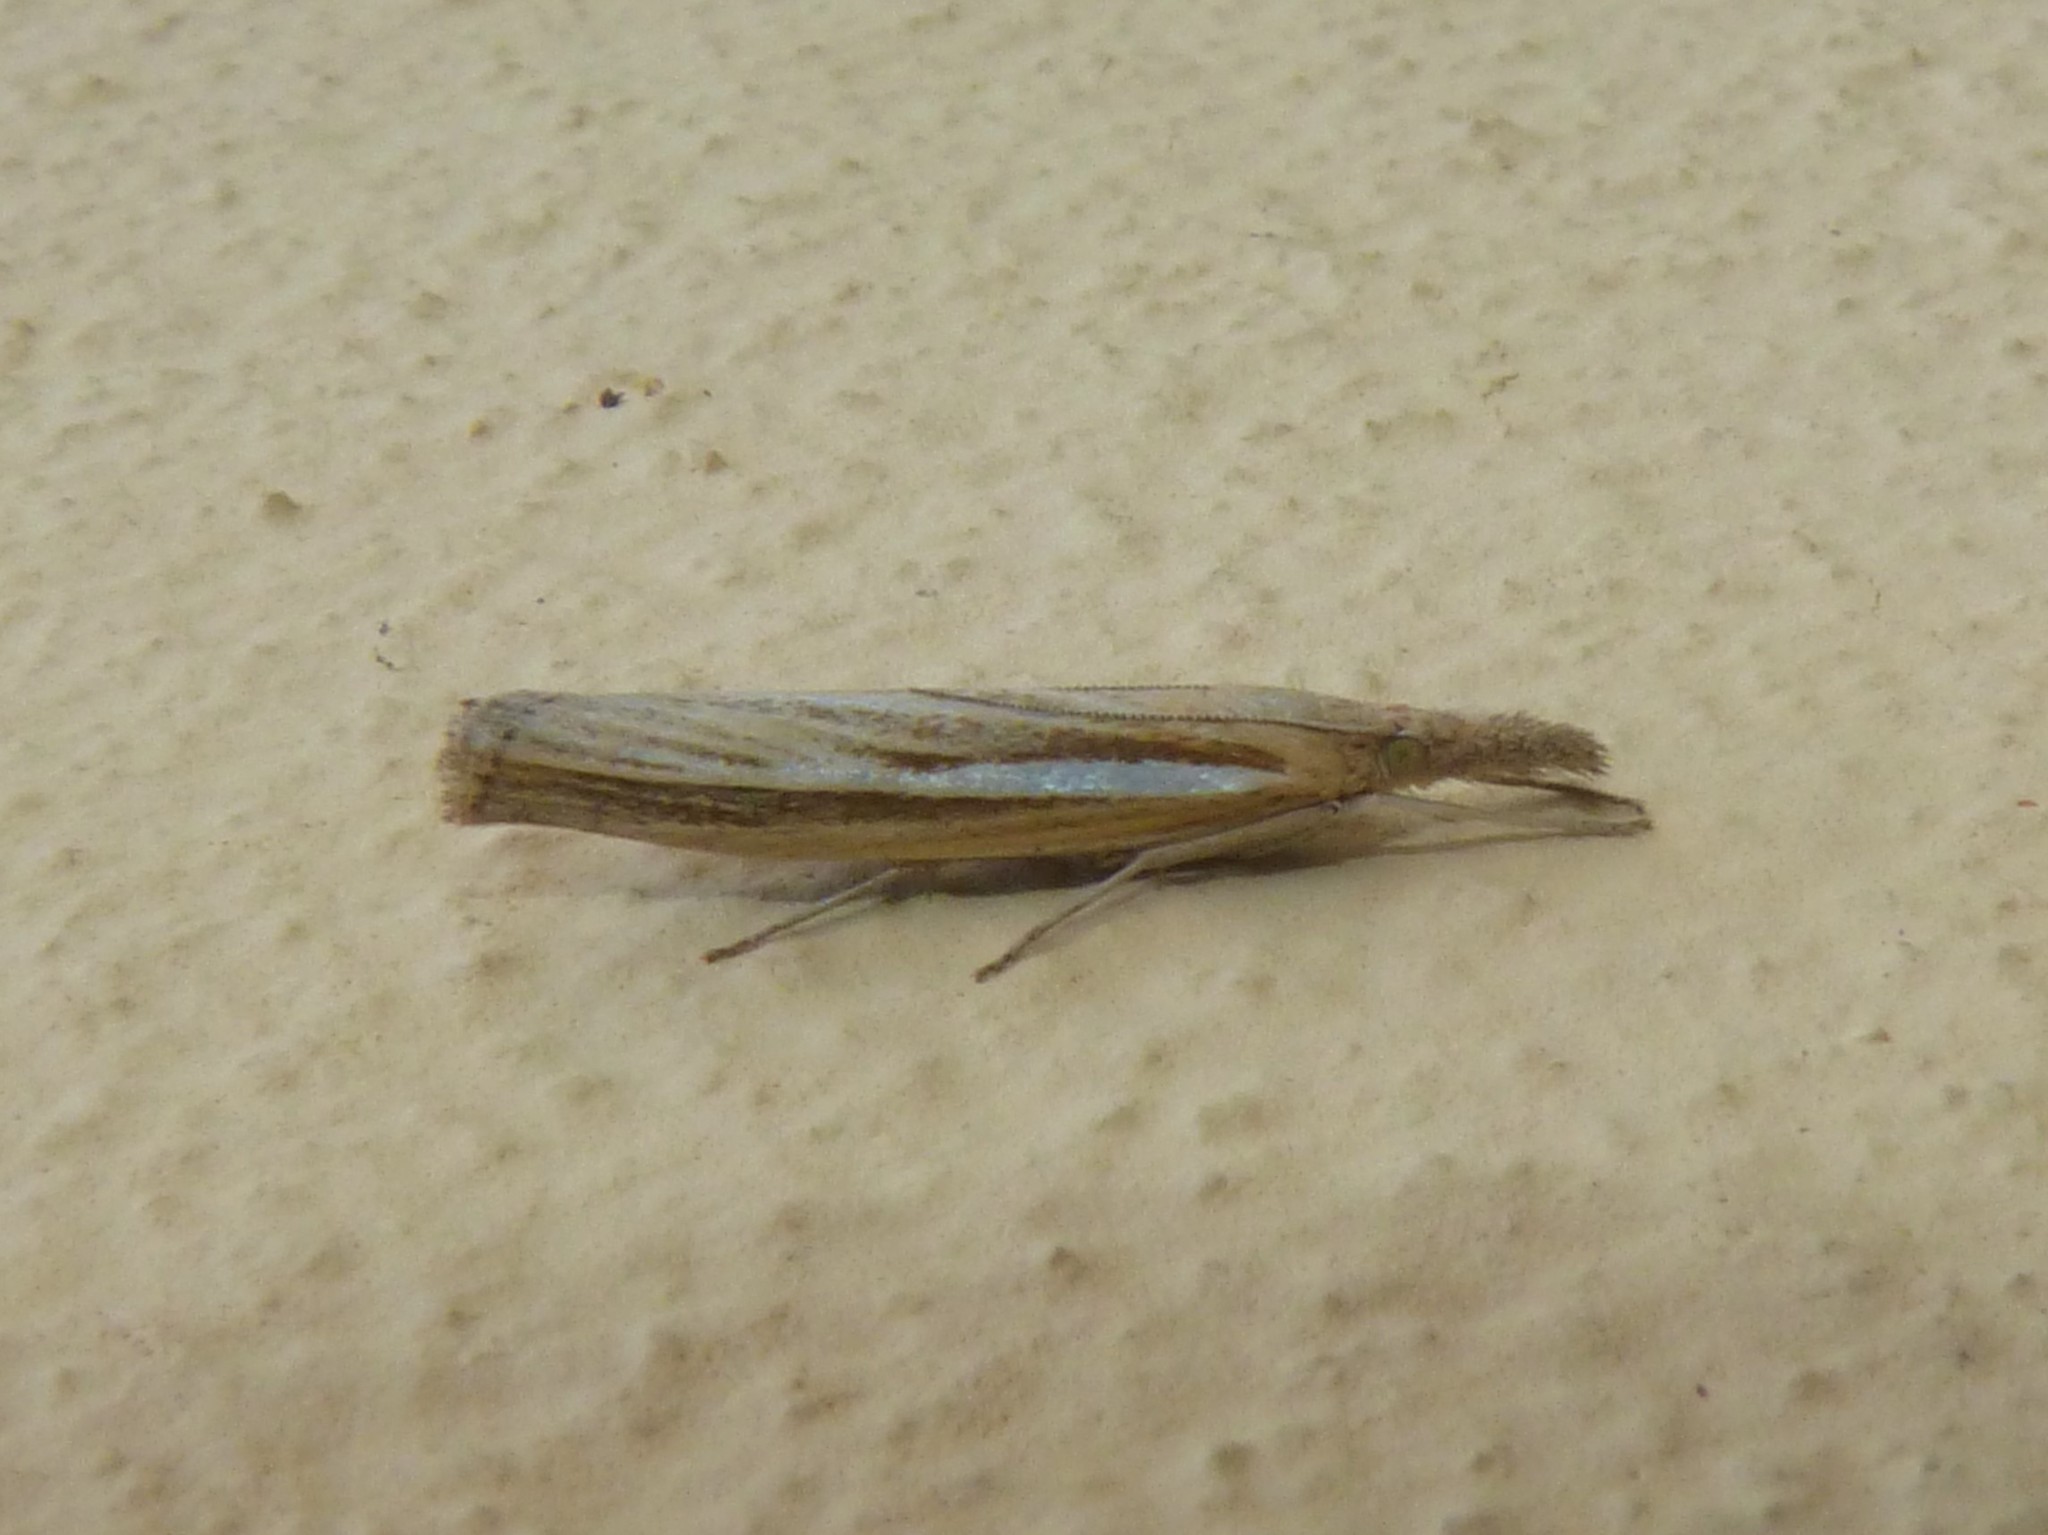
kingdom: Animalia
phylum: Arthropoda
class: Insecta
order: Lepidoptera
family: Crambidae
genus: Agriphila
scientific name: Agriphila tristellus
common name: Common grass-veneer
